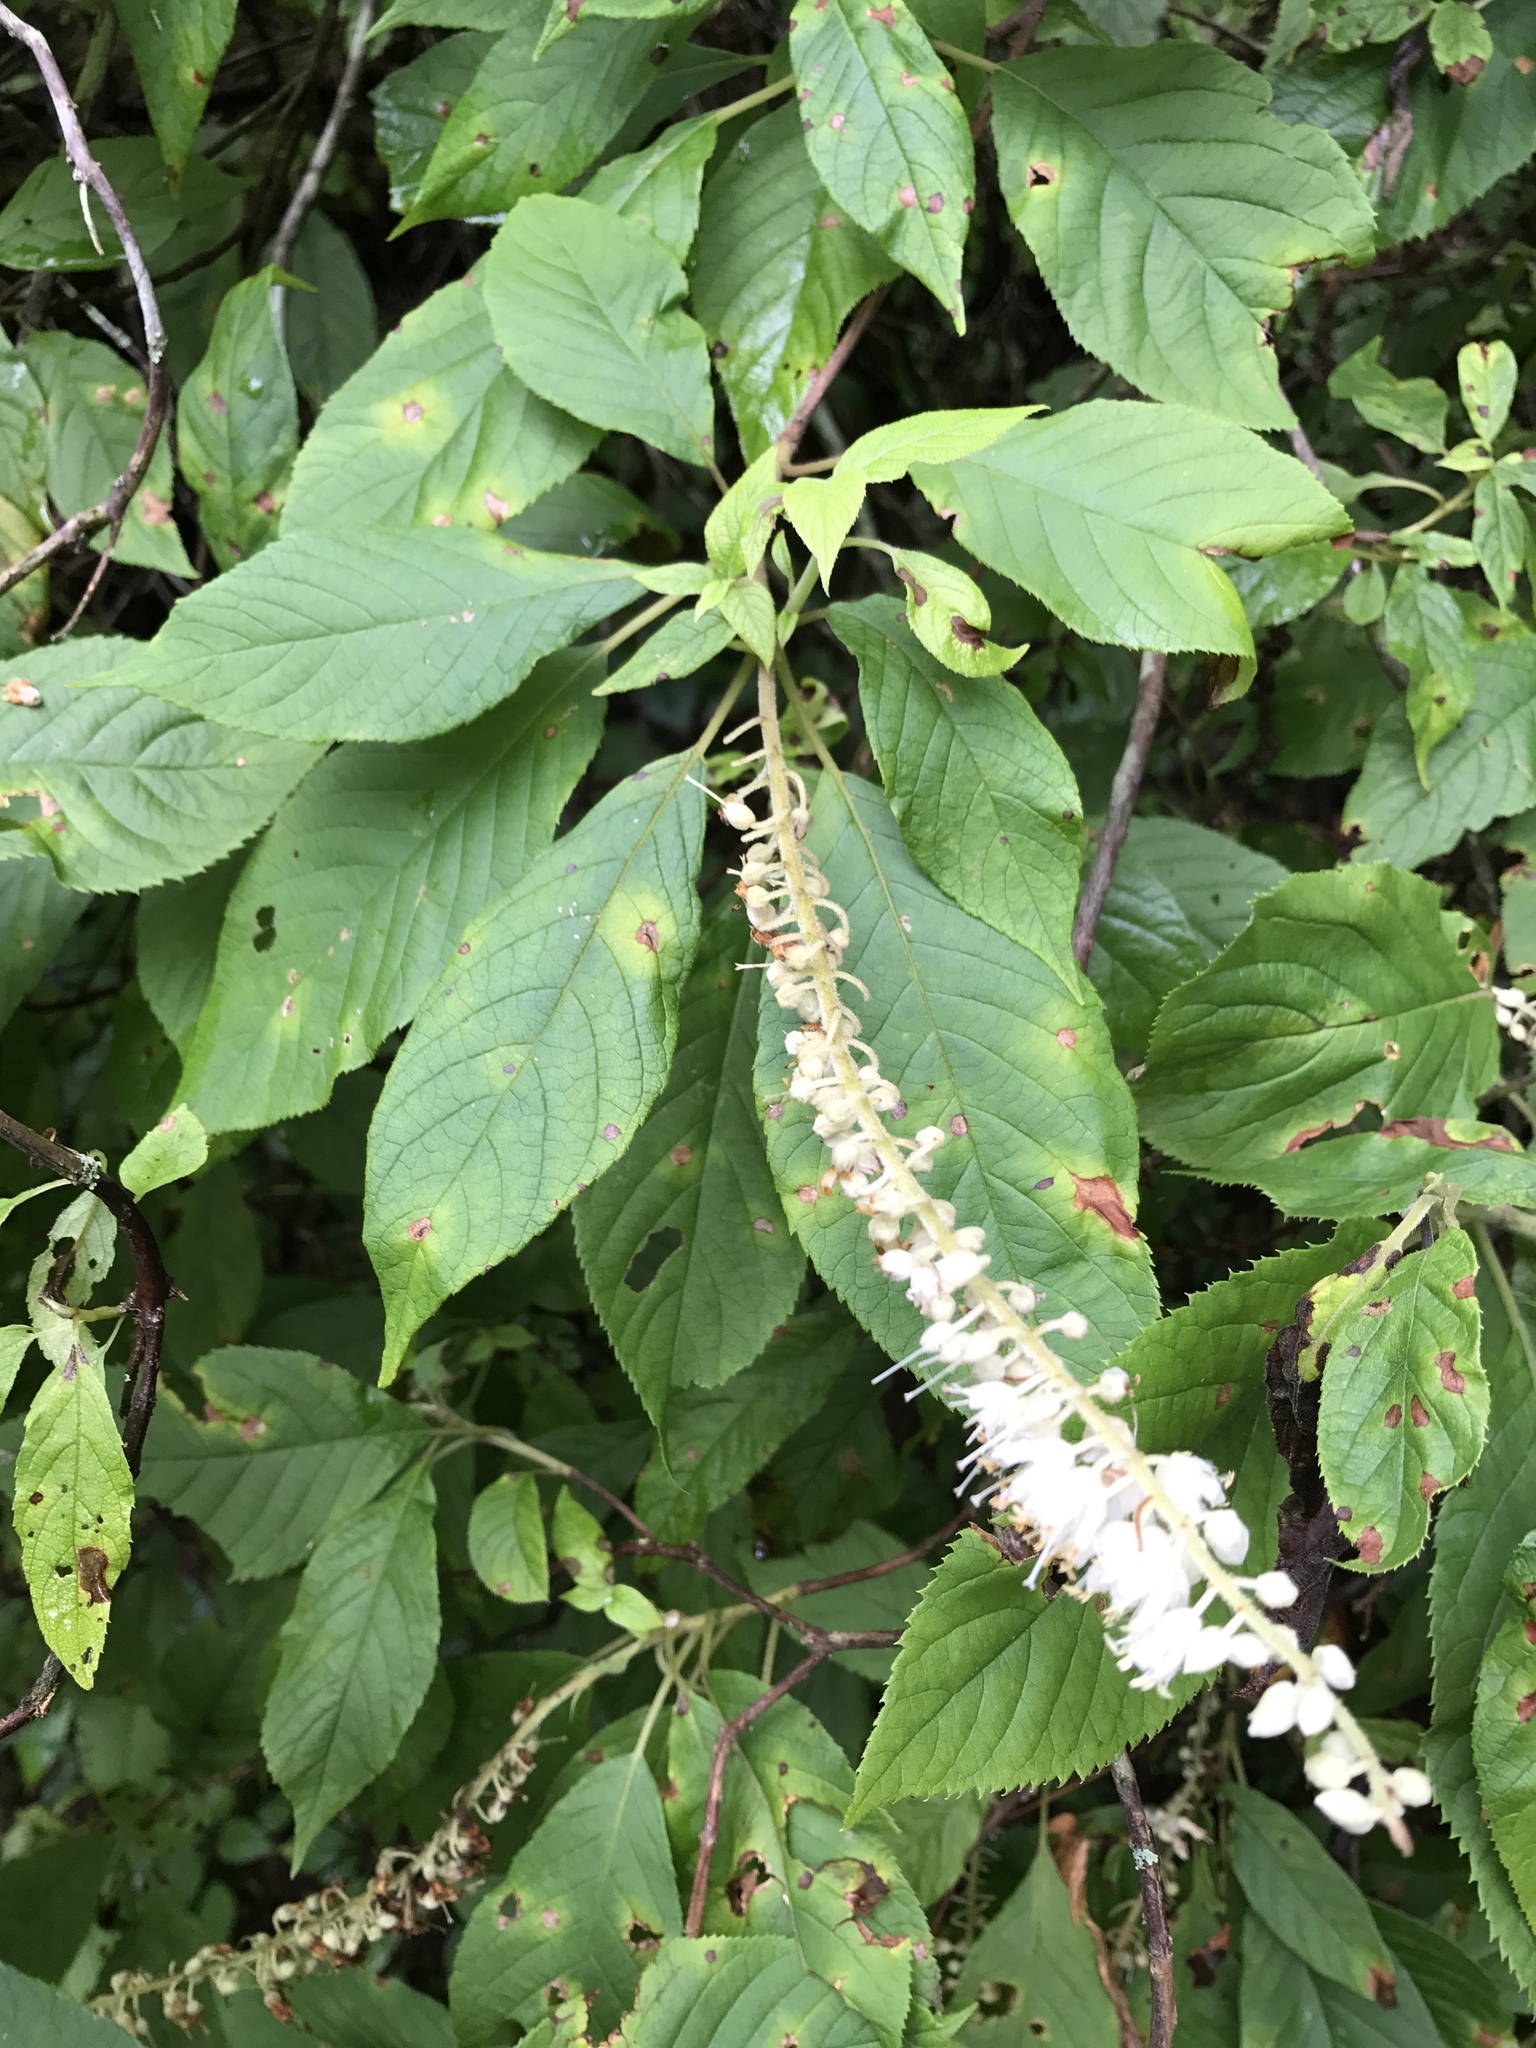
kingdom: Plantae
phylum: Tracheophyta
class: Magnoliopsida
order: Ericales
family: Clethraceae
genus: Clethra
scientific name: Clethra acuminata
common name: Mountain sweet pepperbush
